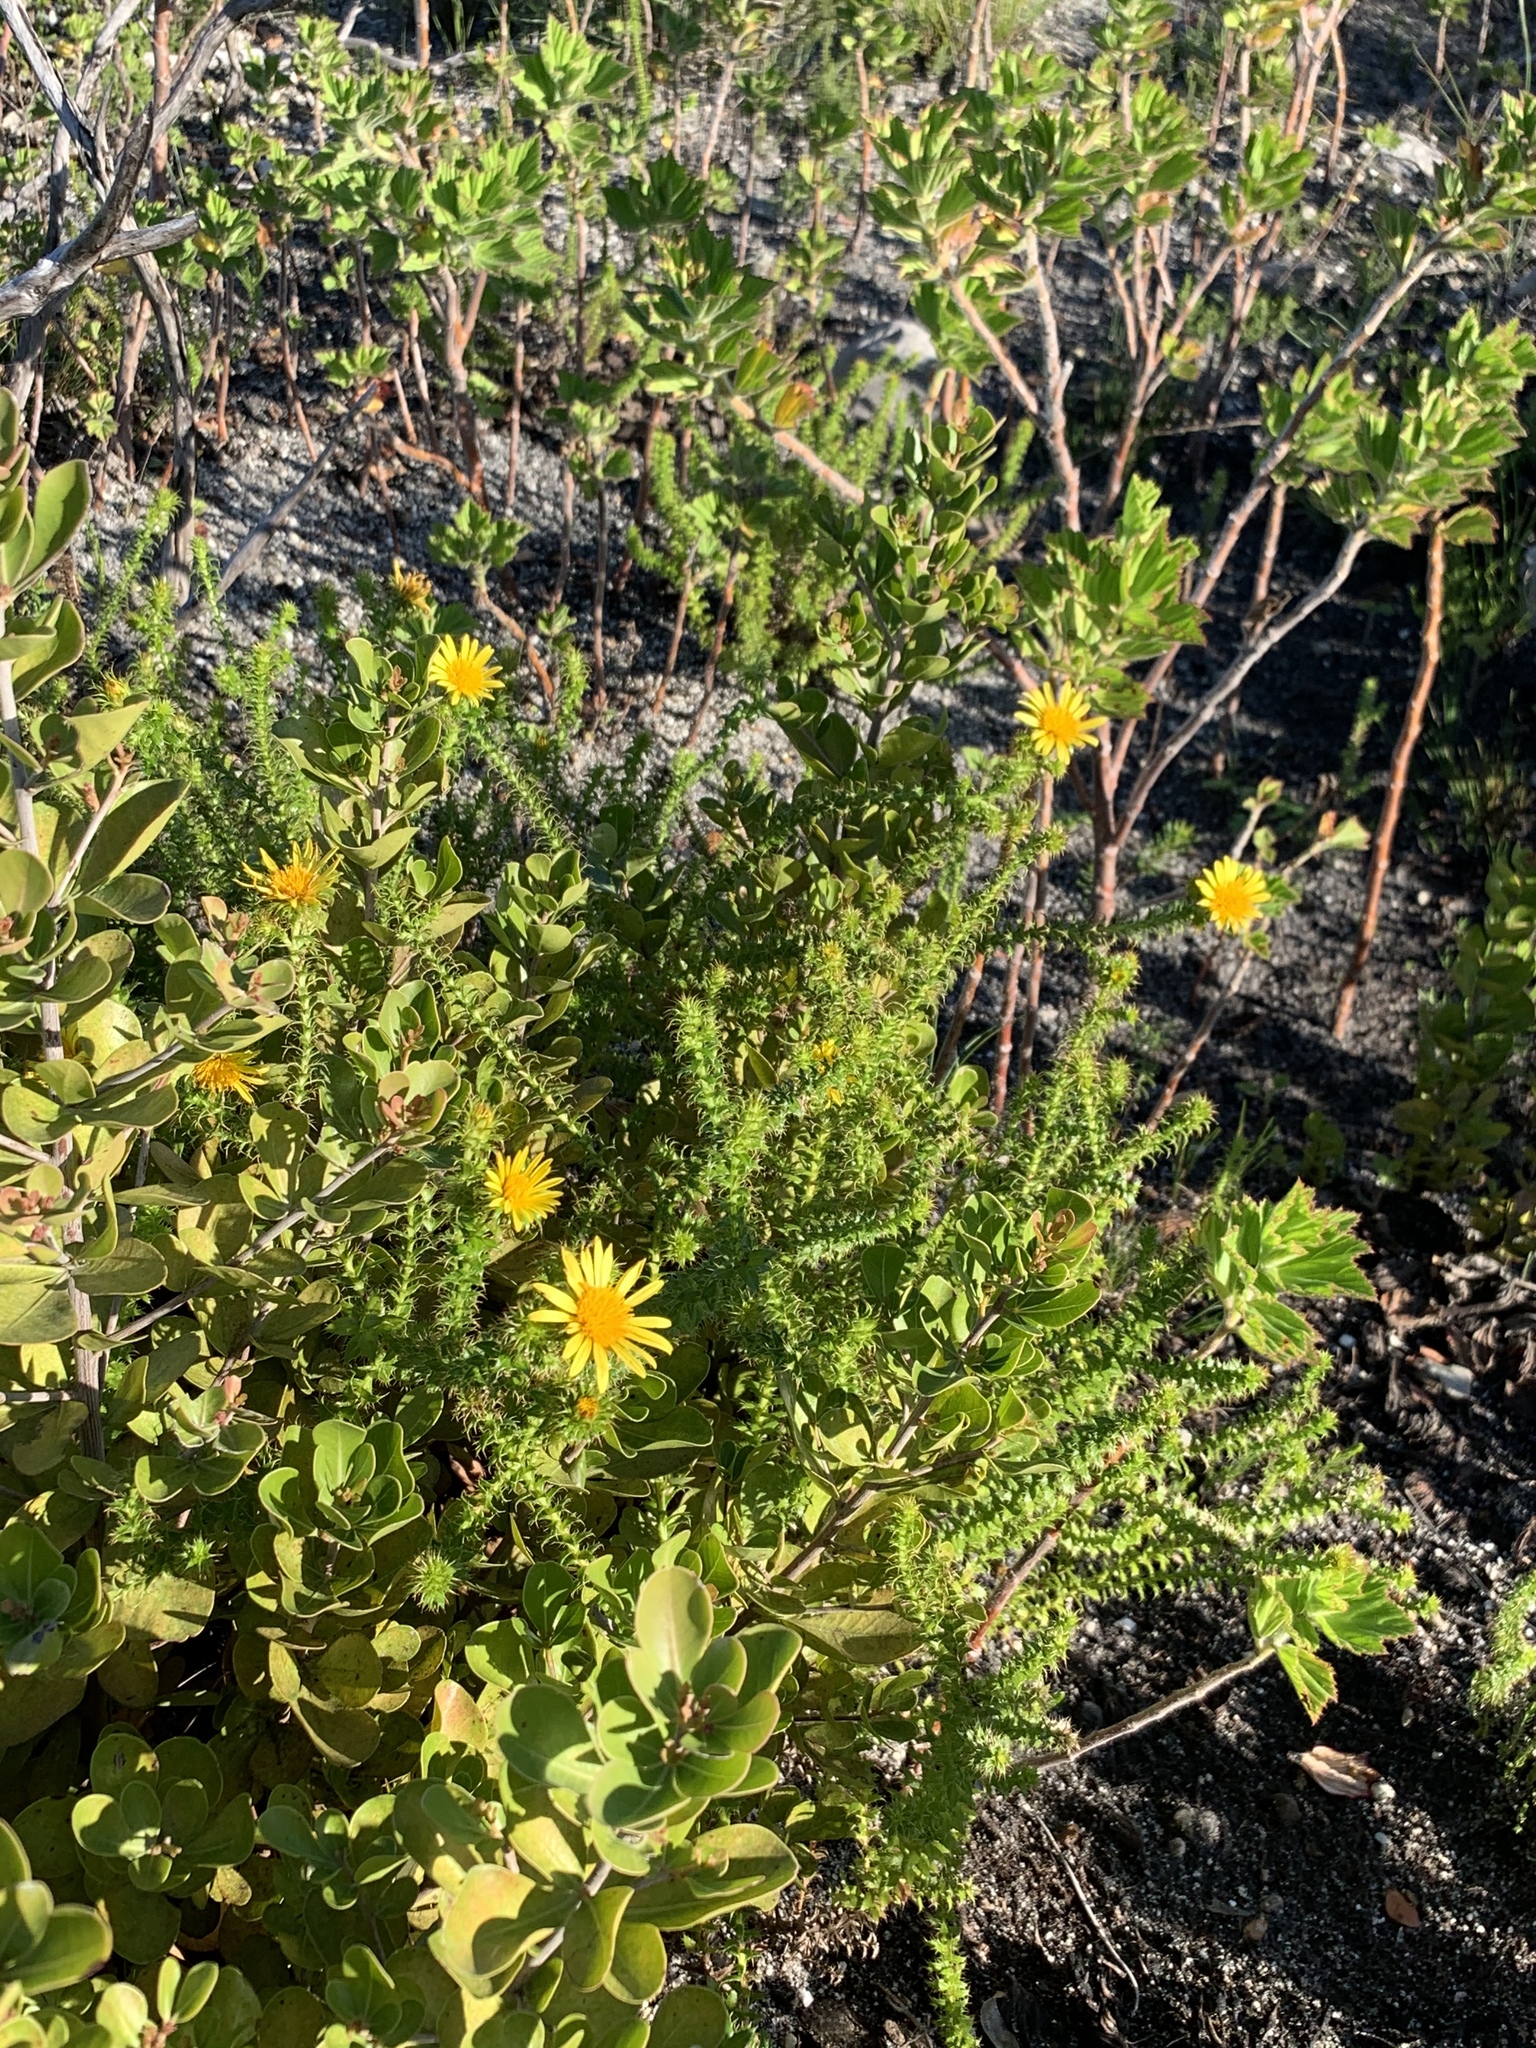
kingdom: Plantae
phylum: Tracheophyta
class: Magnoliopsida
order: Asterales
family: Asteraceae
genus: Cullumia
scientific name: Cullumia setosa
